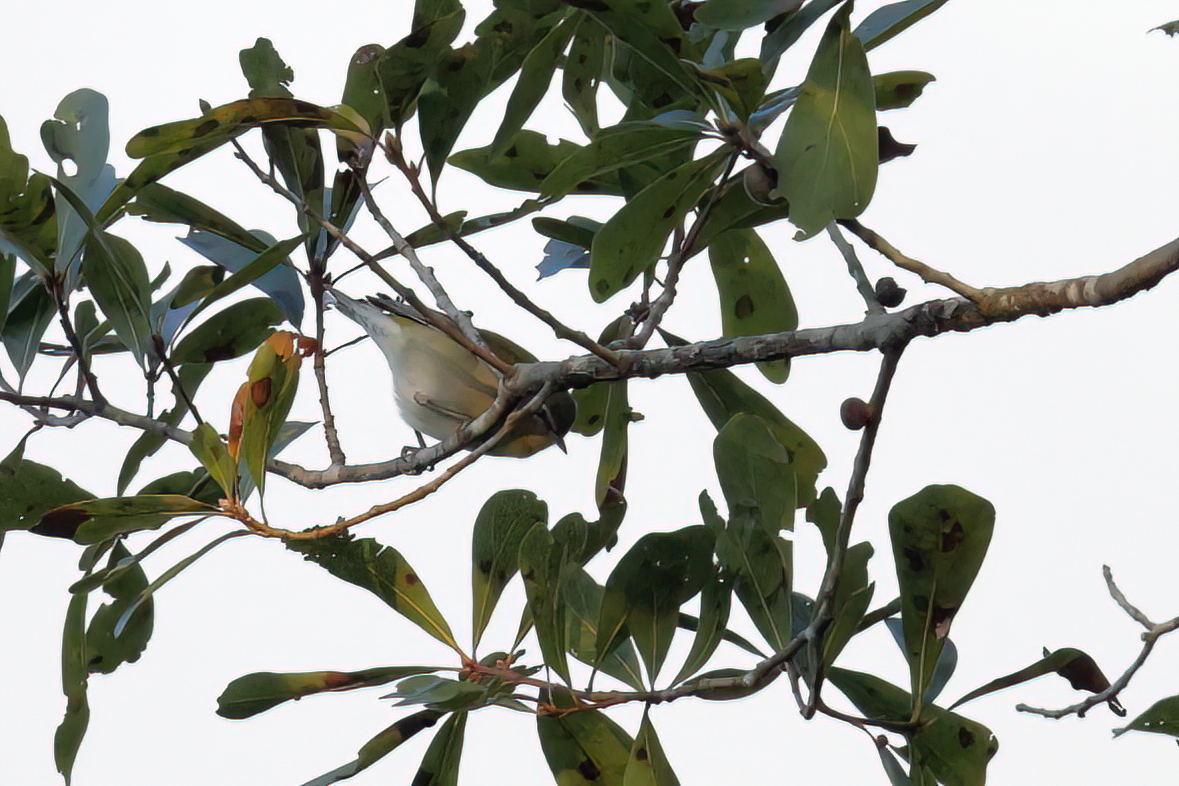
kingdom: Animalia
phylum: Chordata
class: Aves
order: Passeriformes
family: Parulidae
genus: Leiothlypis
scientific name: Leiothlypis peregrina
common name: Tennessee warbler
